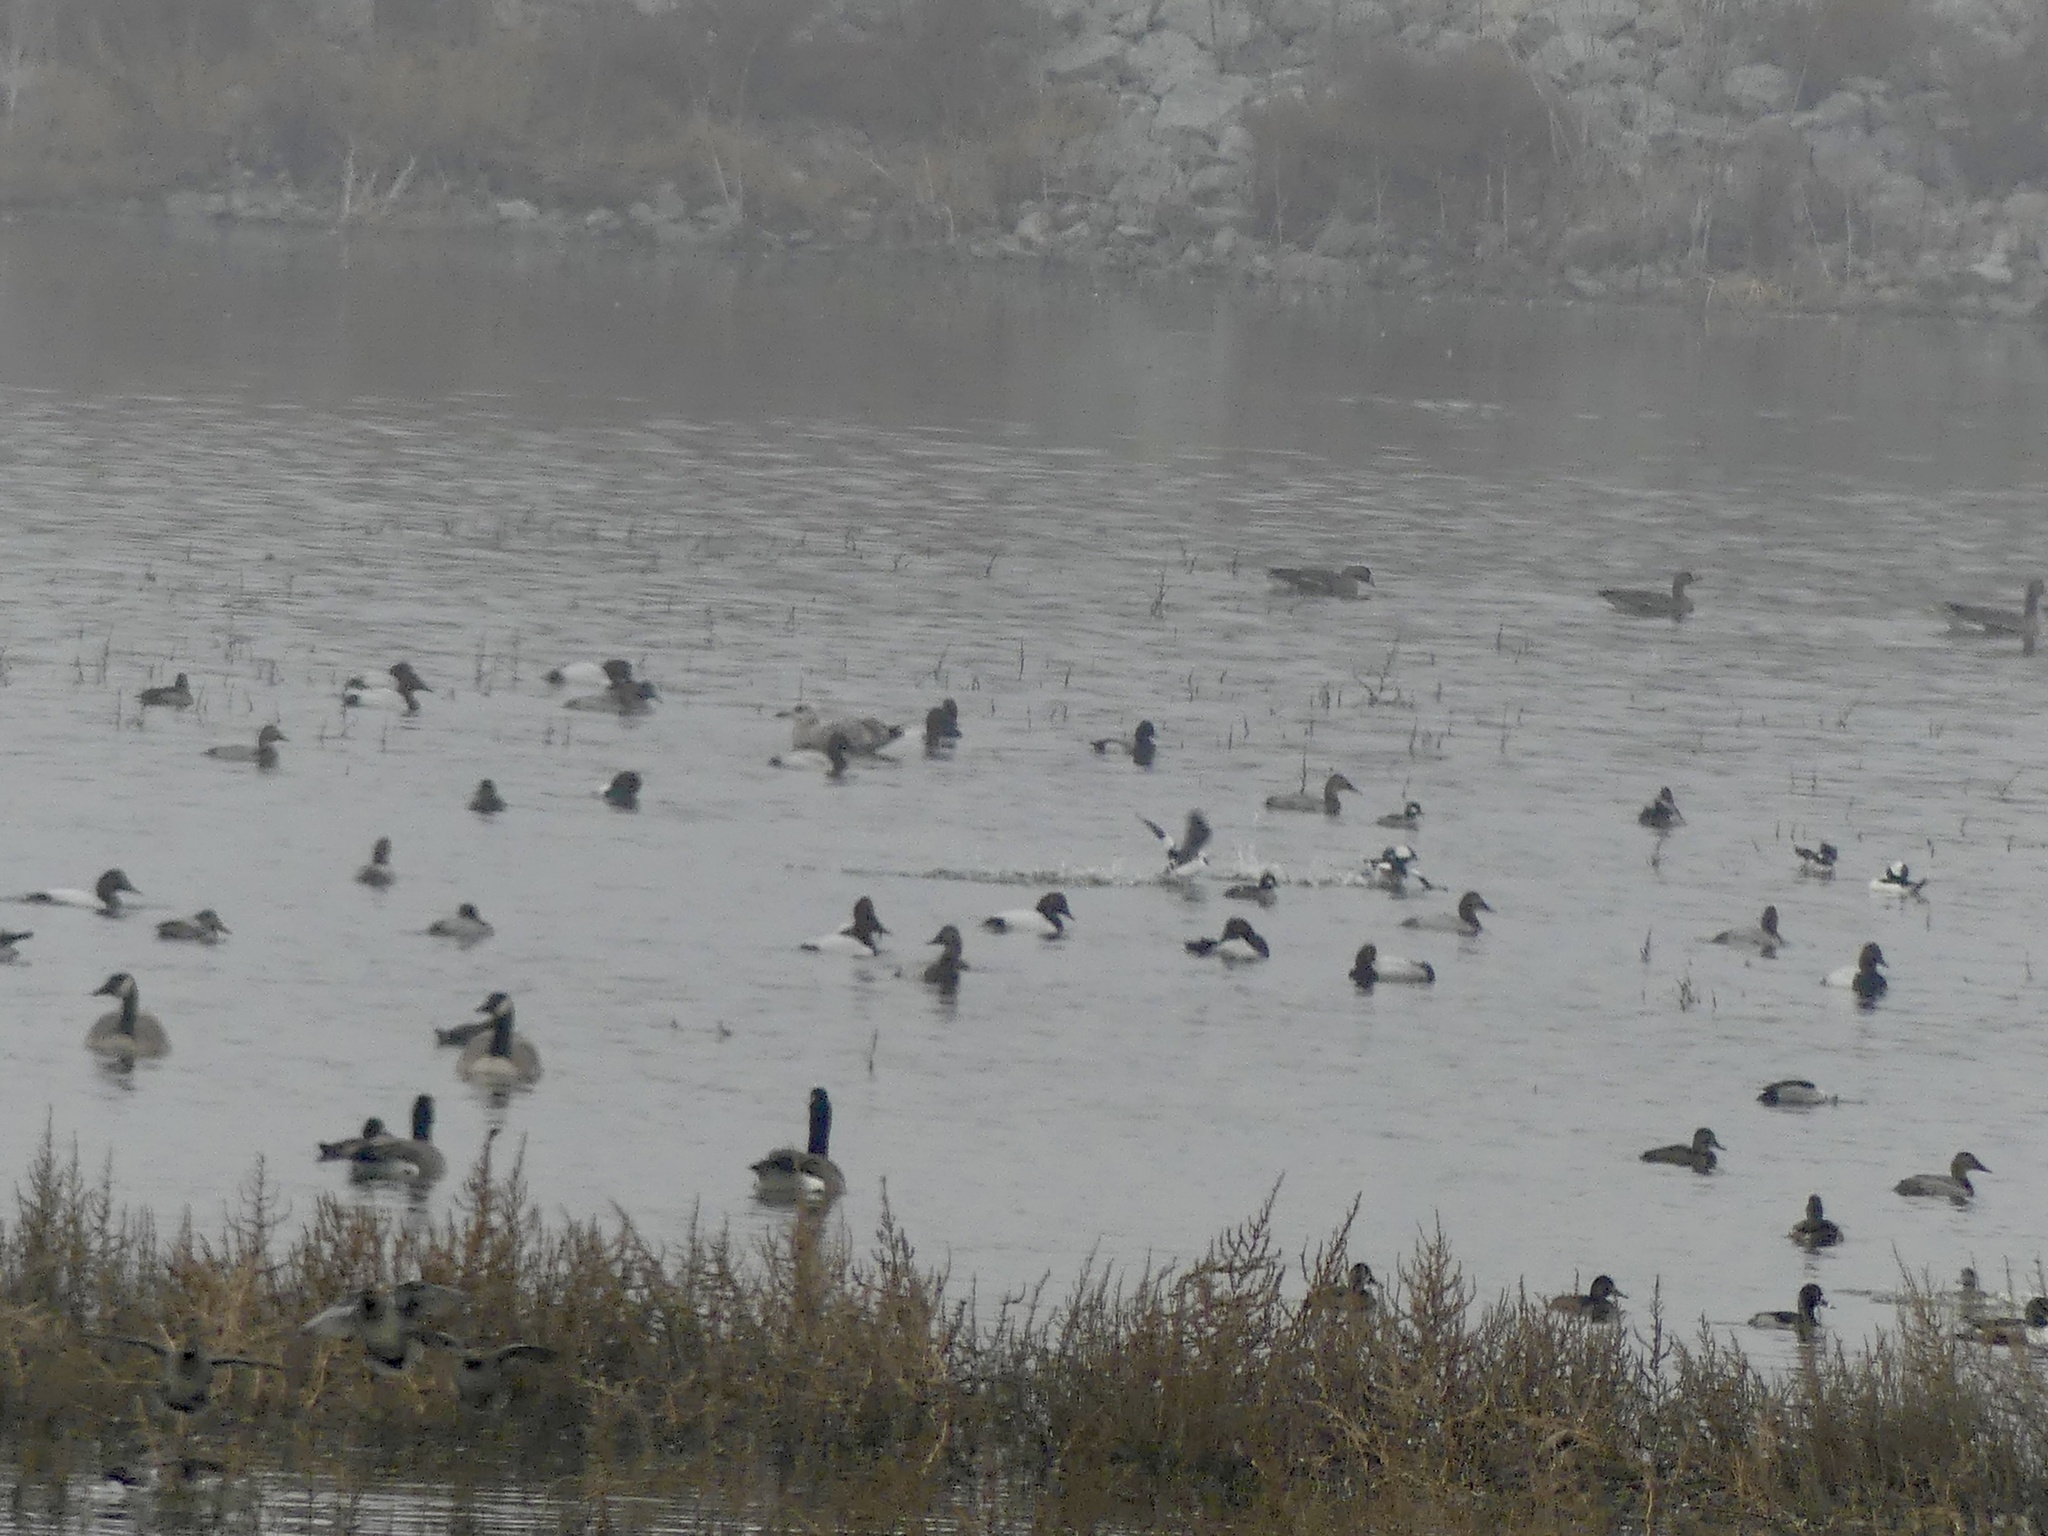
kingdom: Animalia
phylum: Chordata
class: Aves
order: Anseriformes
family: Anatidae
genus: Aythya
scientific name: Aythya valisineria
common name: Canvasback
